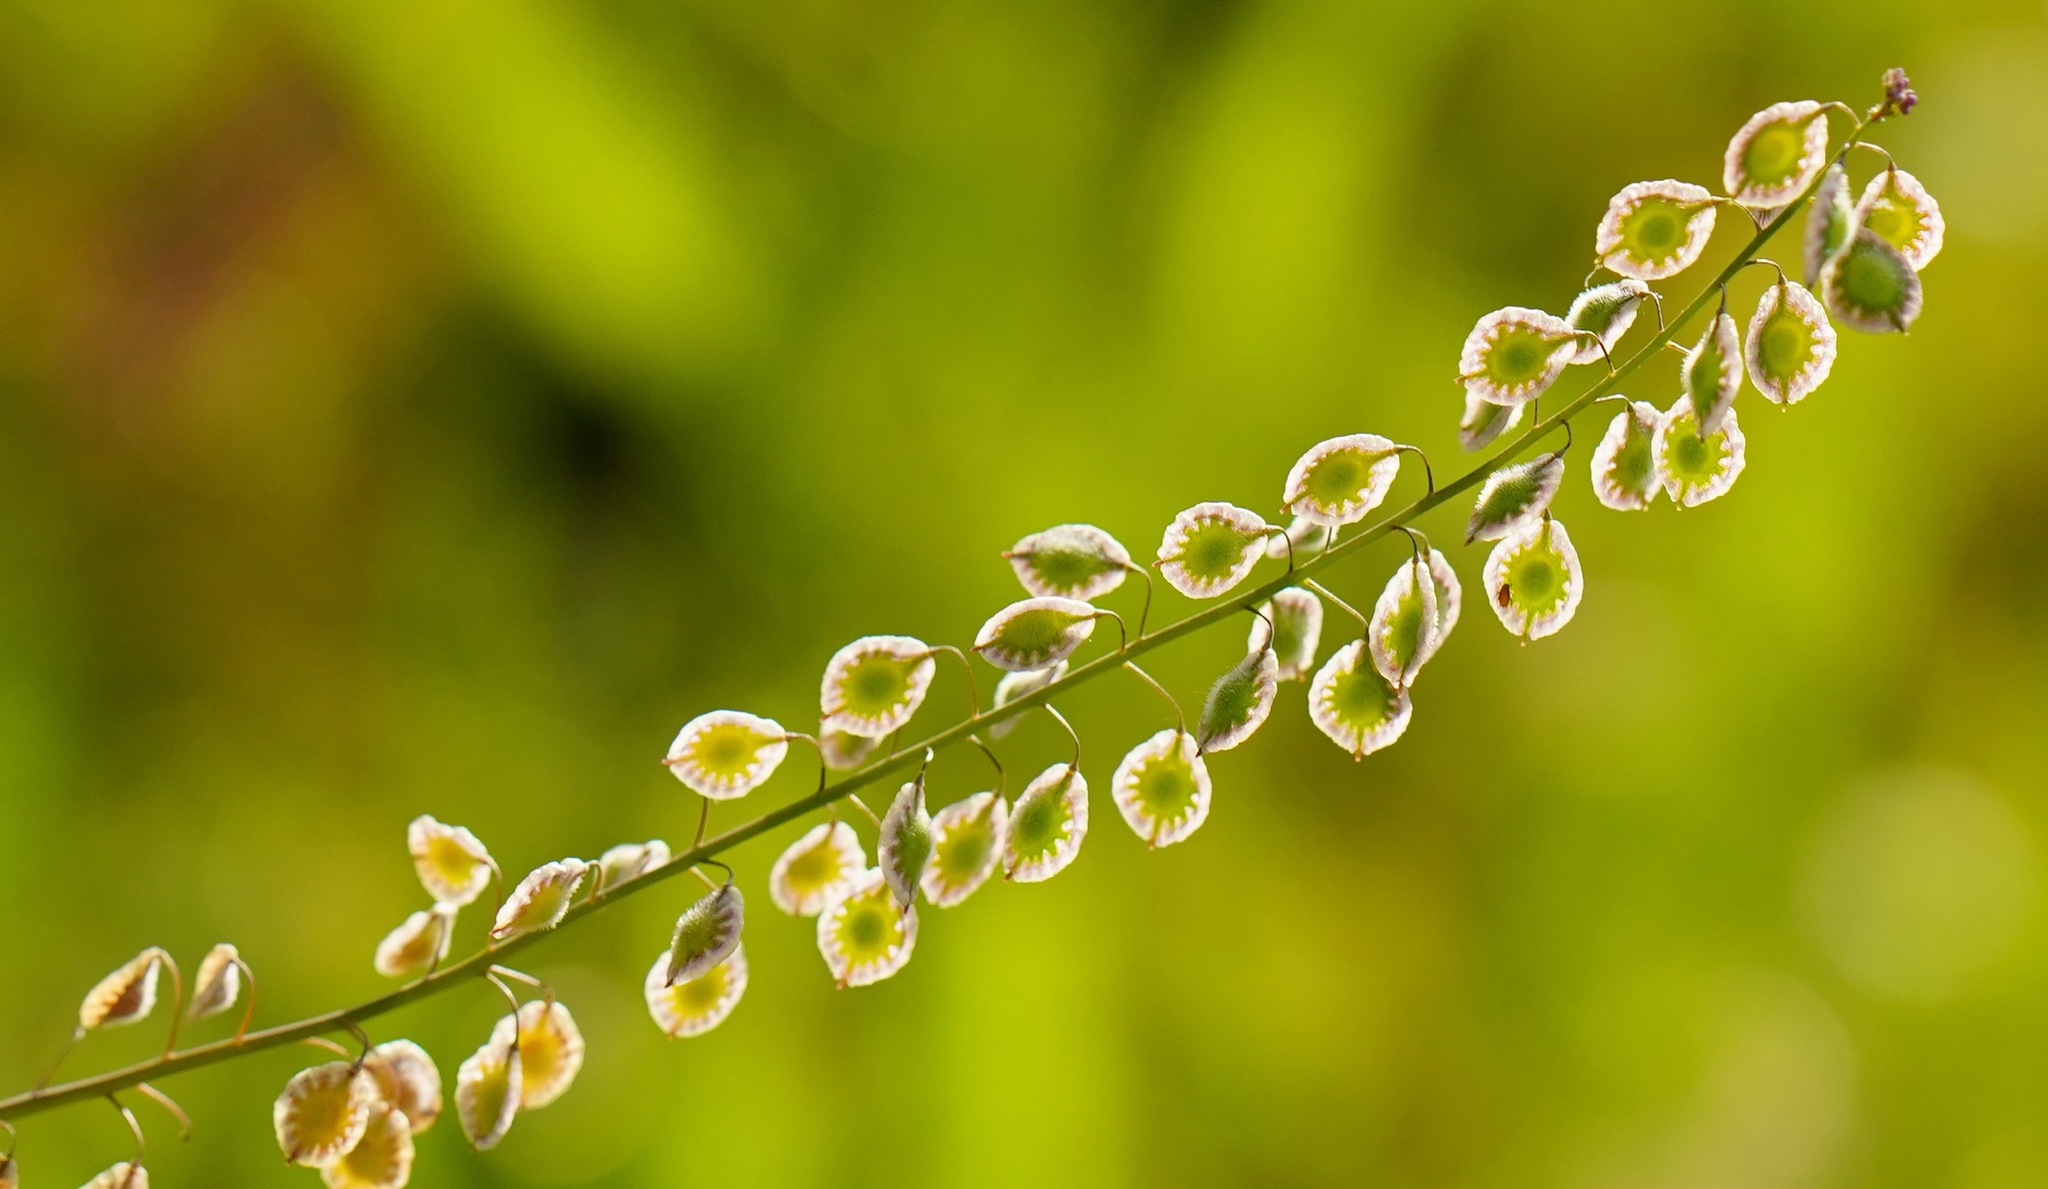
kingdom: Plantae
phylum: Tracheophyta
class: Magnoliopsida
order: Brassicales
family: Brassicaceae
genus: Thysanocarpus
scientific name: Thysanocarpus curvipes
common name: Sand fringepod
